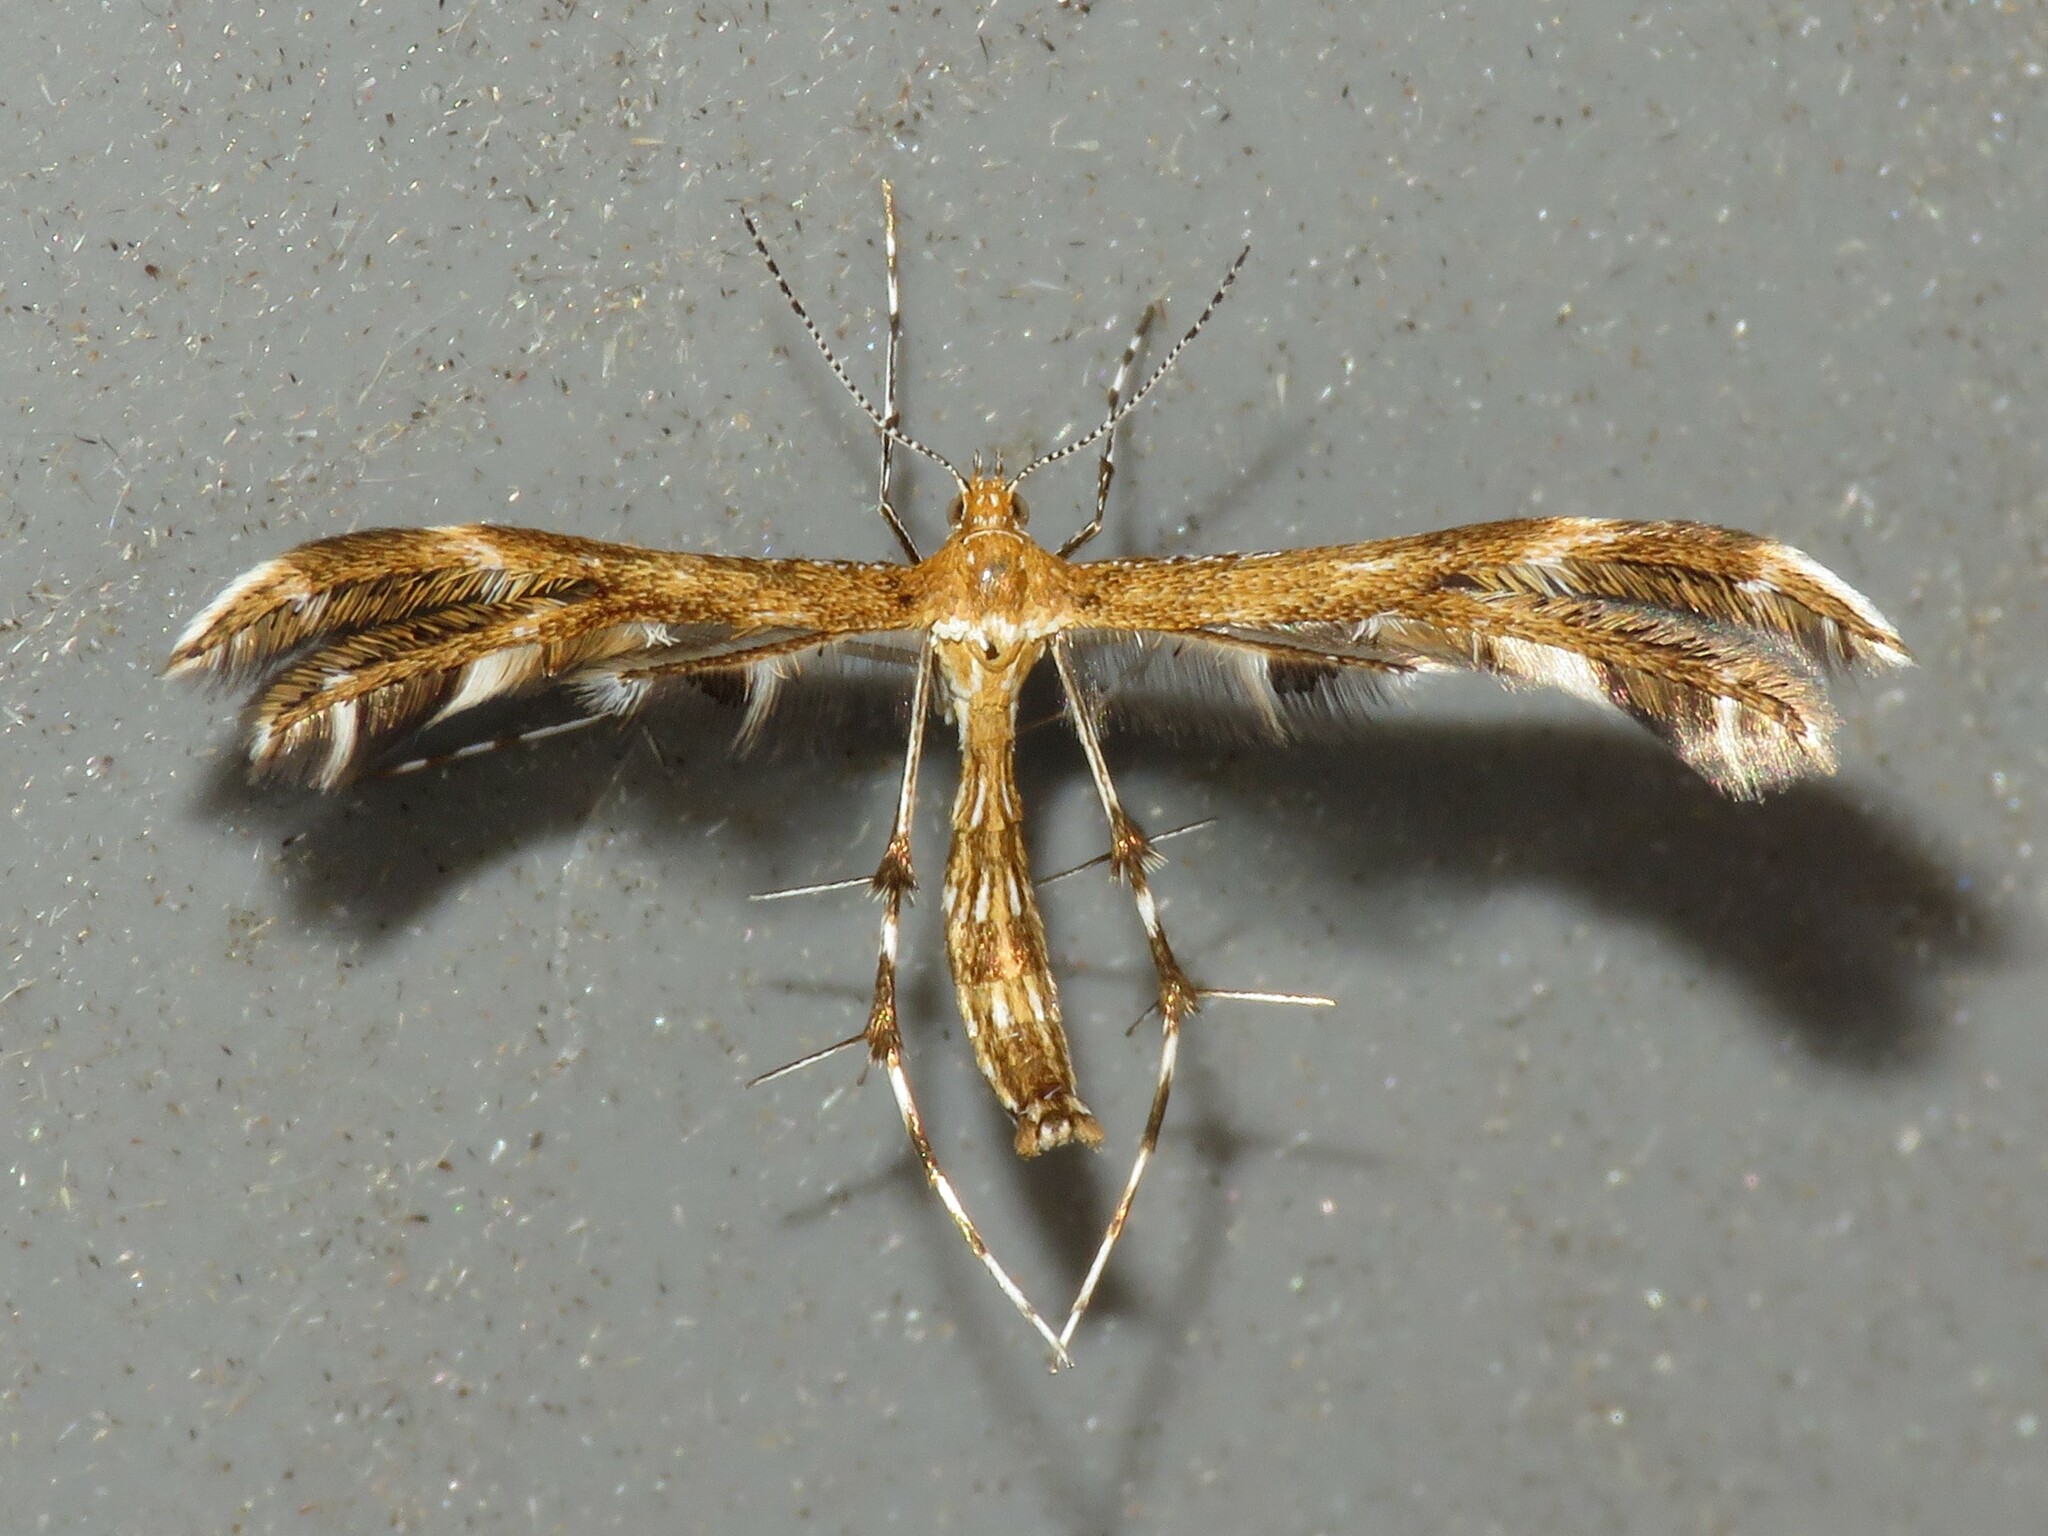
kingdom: Animalia
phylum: Arthropoda
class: Insecta
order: Lepidoptera
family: Pterophoridae
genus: Dejongia
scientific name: Dejongia lobidactylus
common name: Lobed plume moth
